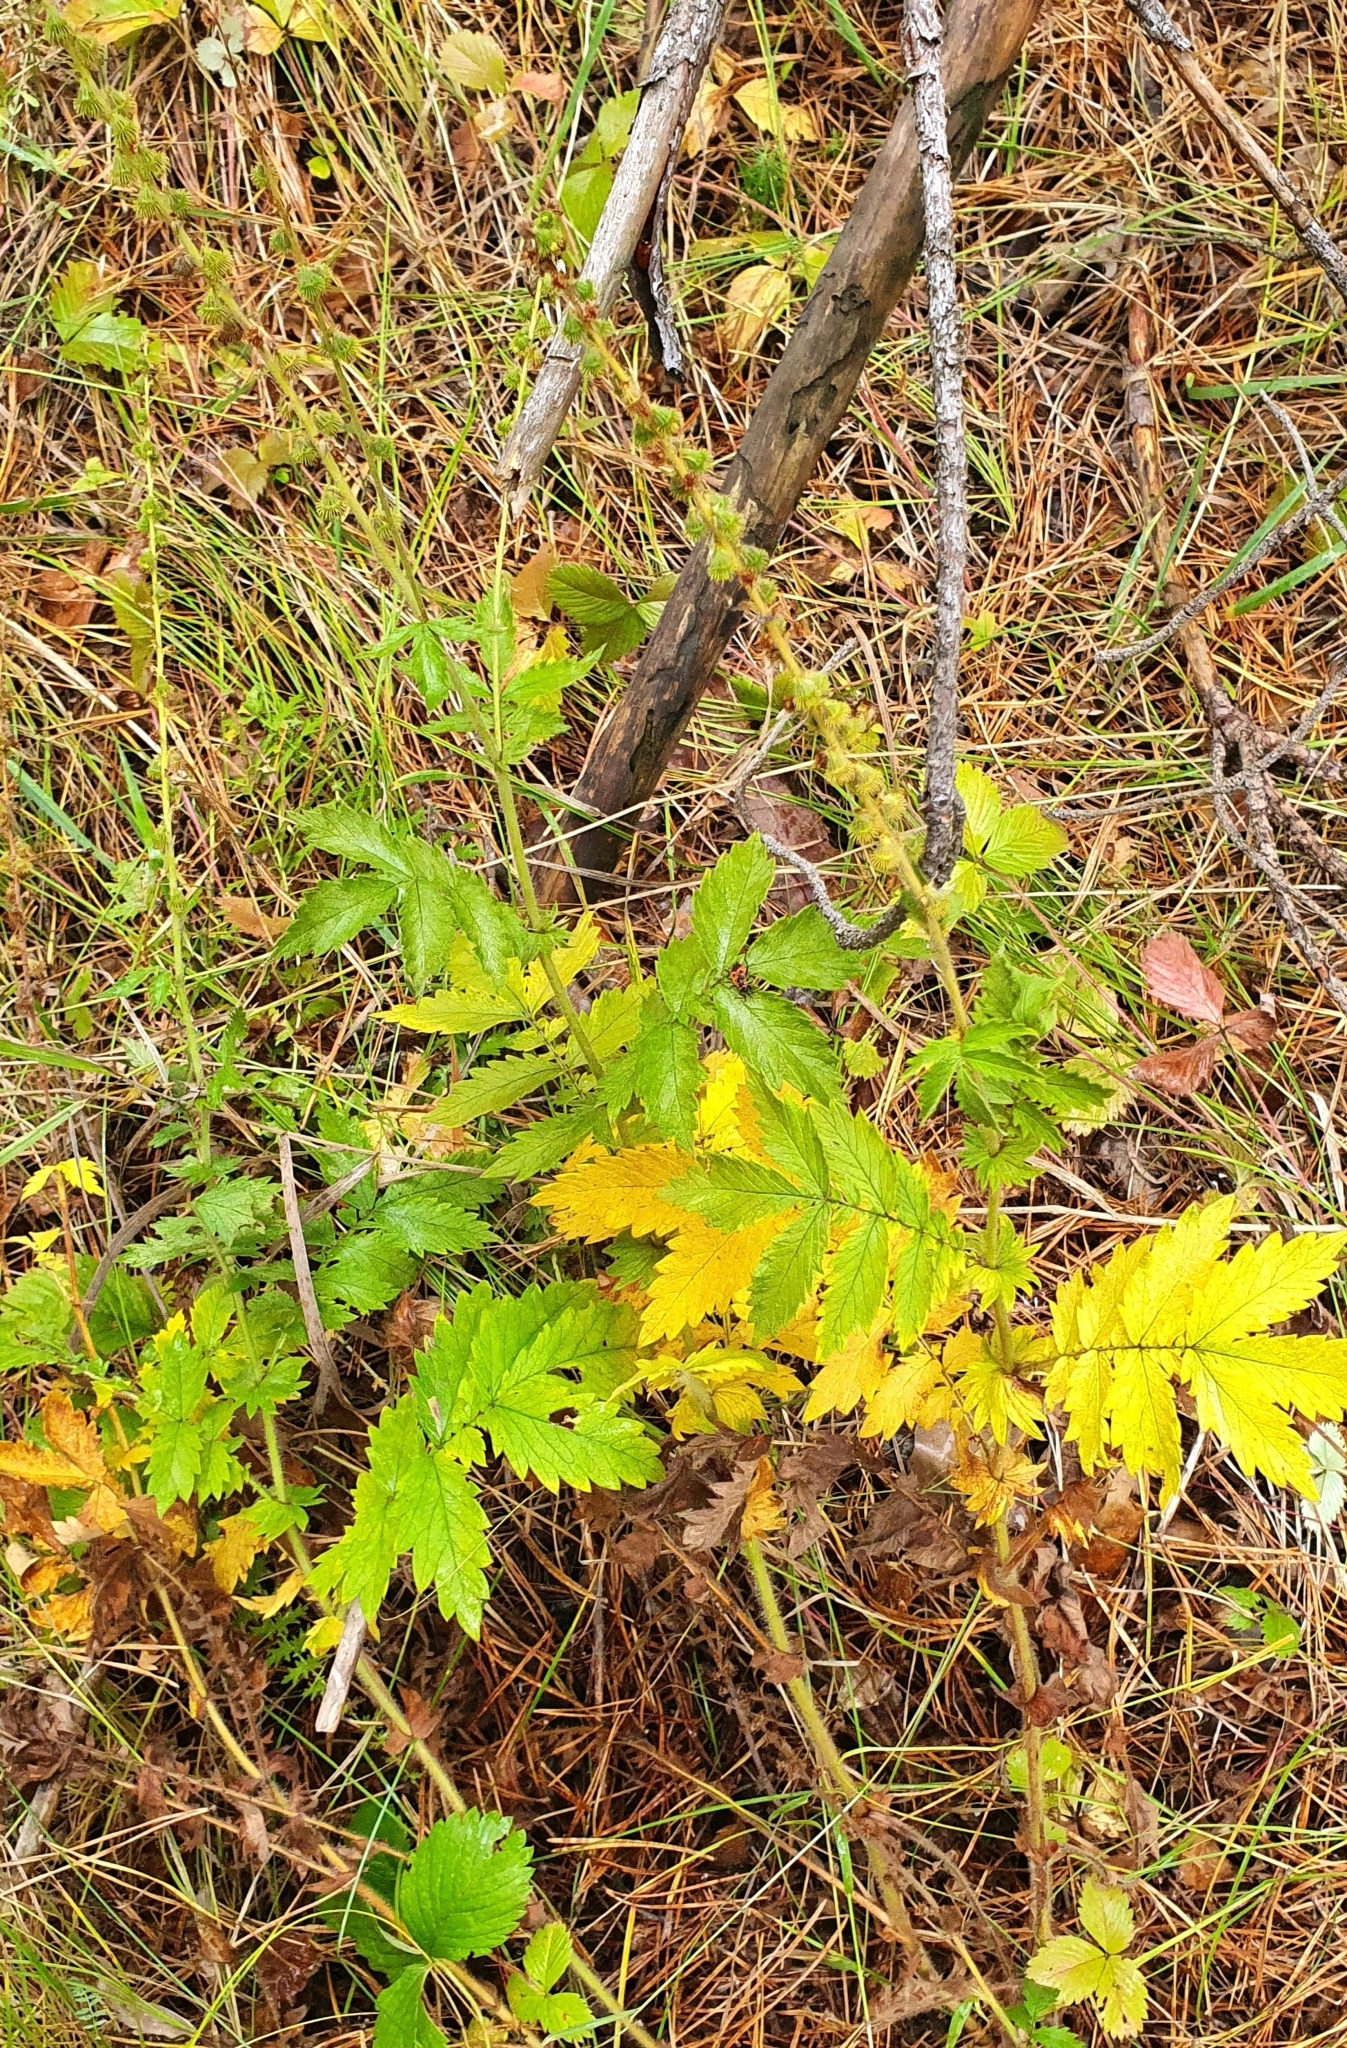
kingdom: Plantae
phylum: Tracheophyta
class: Magnoliopsida
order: Rosales
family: Rosaceae
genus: Agrimonia
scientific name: Agrimonia eupatoria
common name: Agrimony
